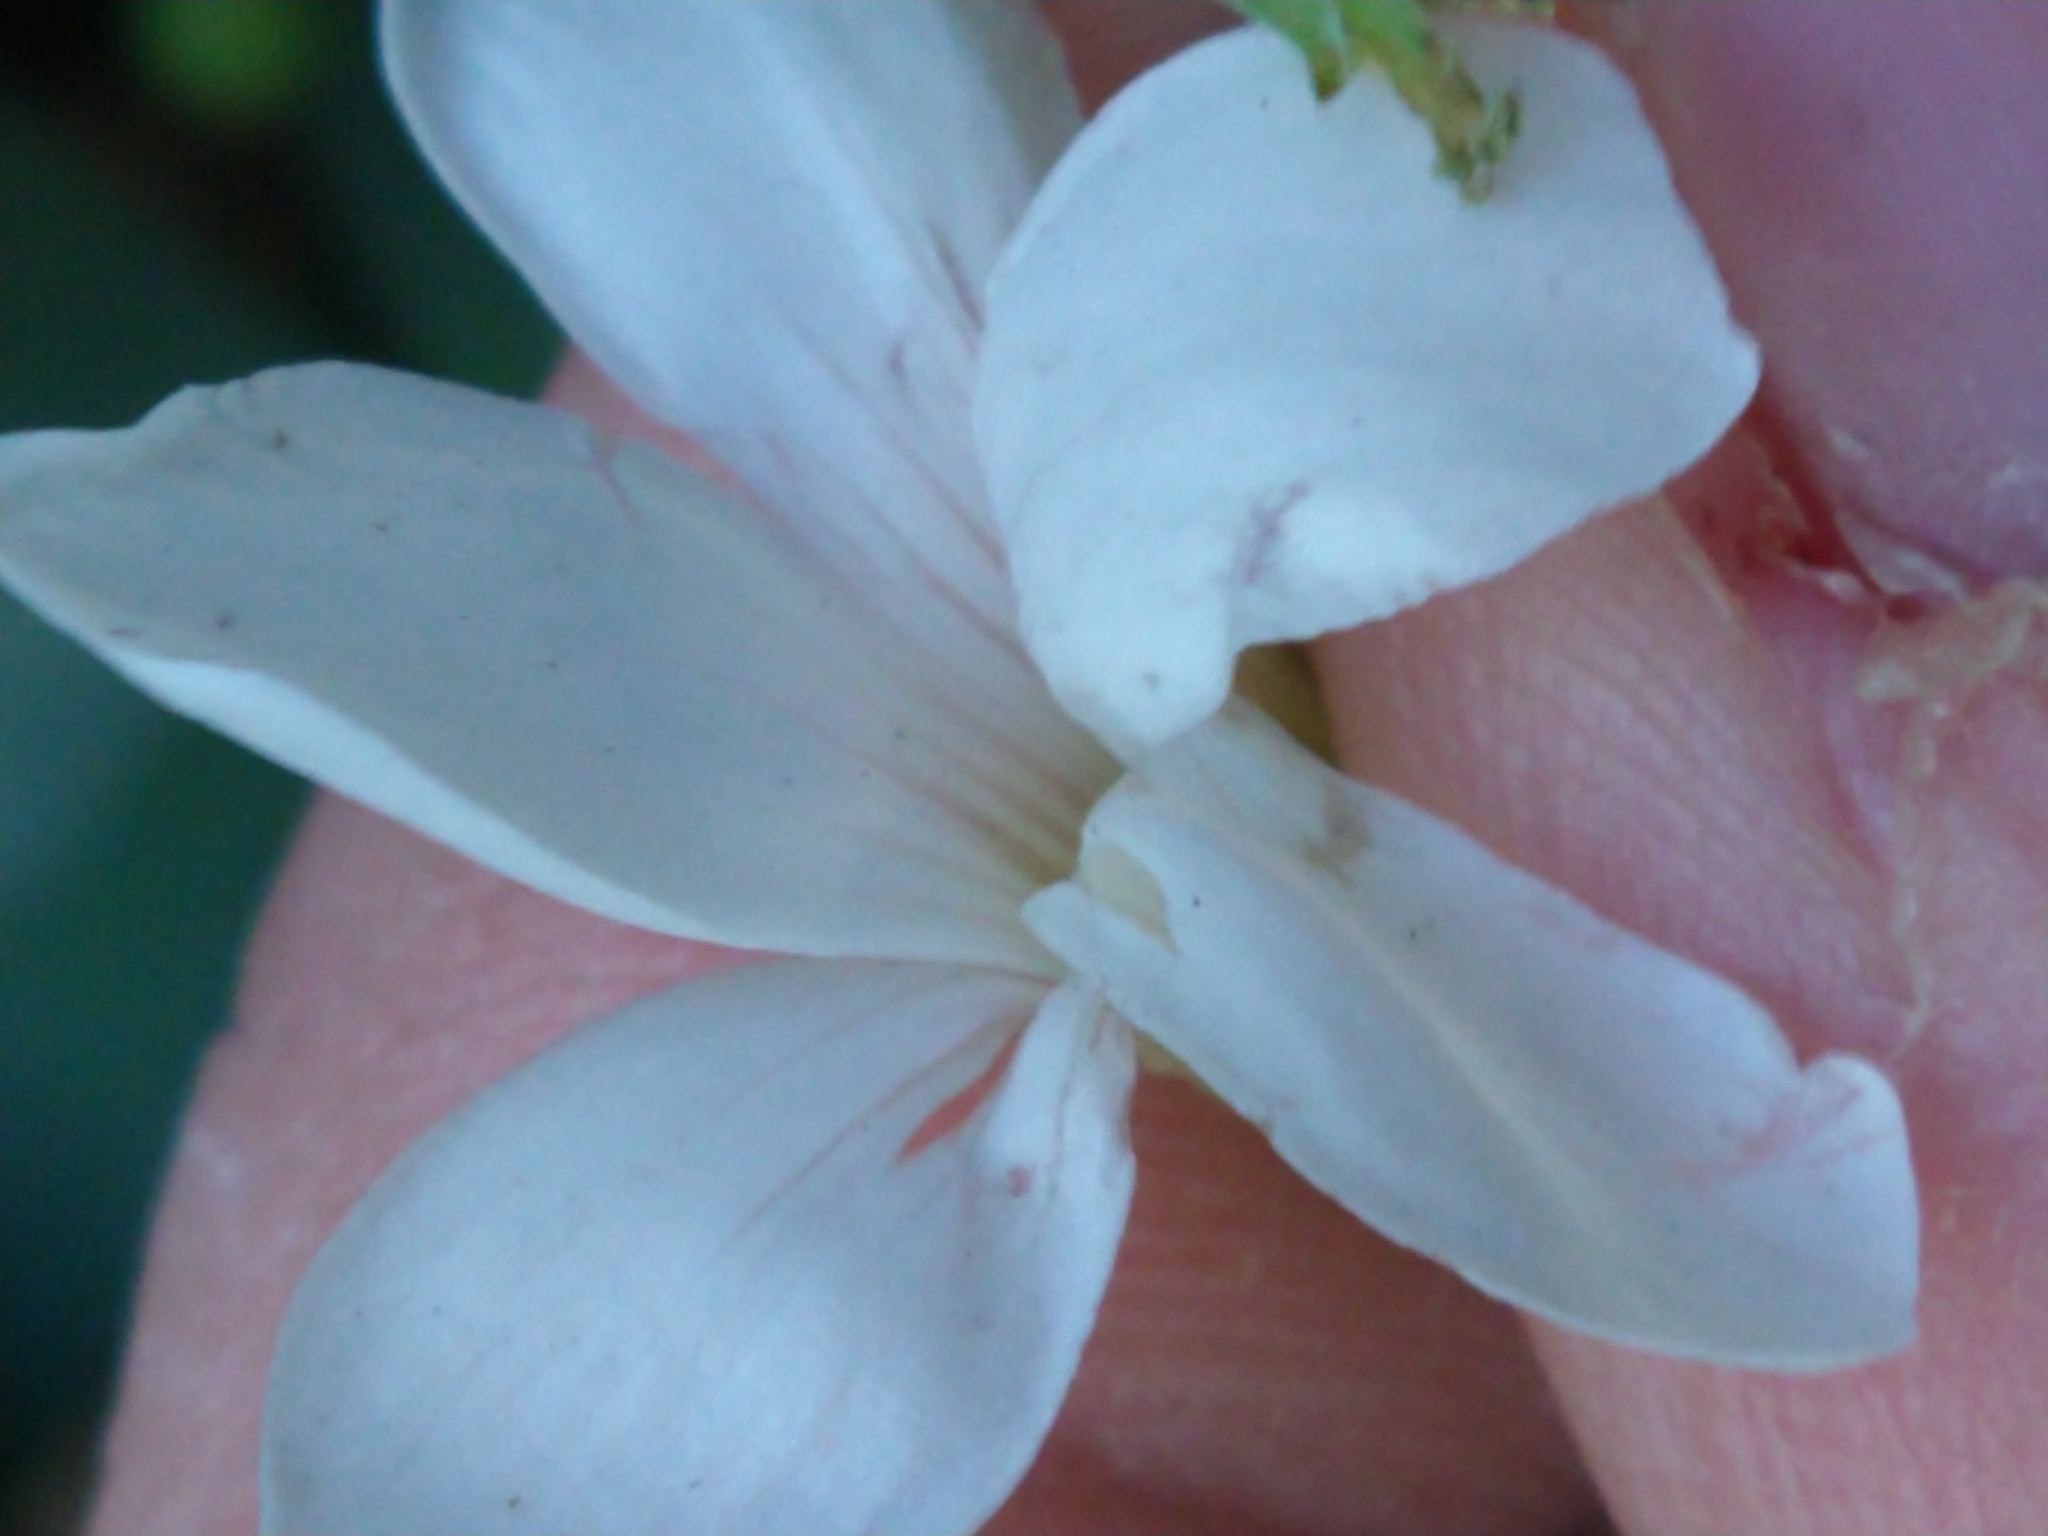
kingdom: Plantae
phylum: Tracheophyta
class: Magnoliopsida
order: Oxalidales
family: Oxalidaceae
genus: Oxalis
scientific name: Oxalis triangularis
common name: Wood sorrel
